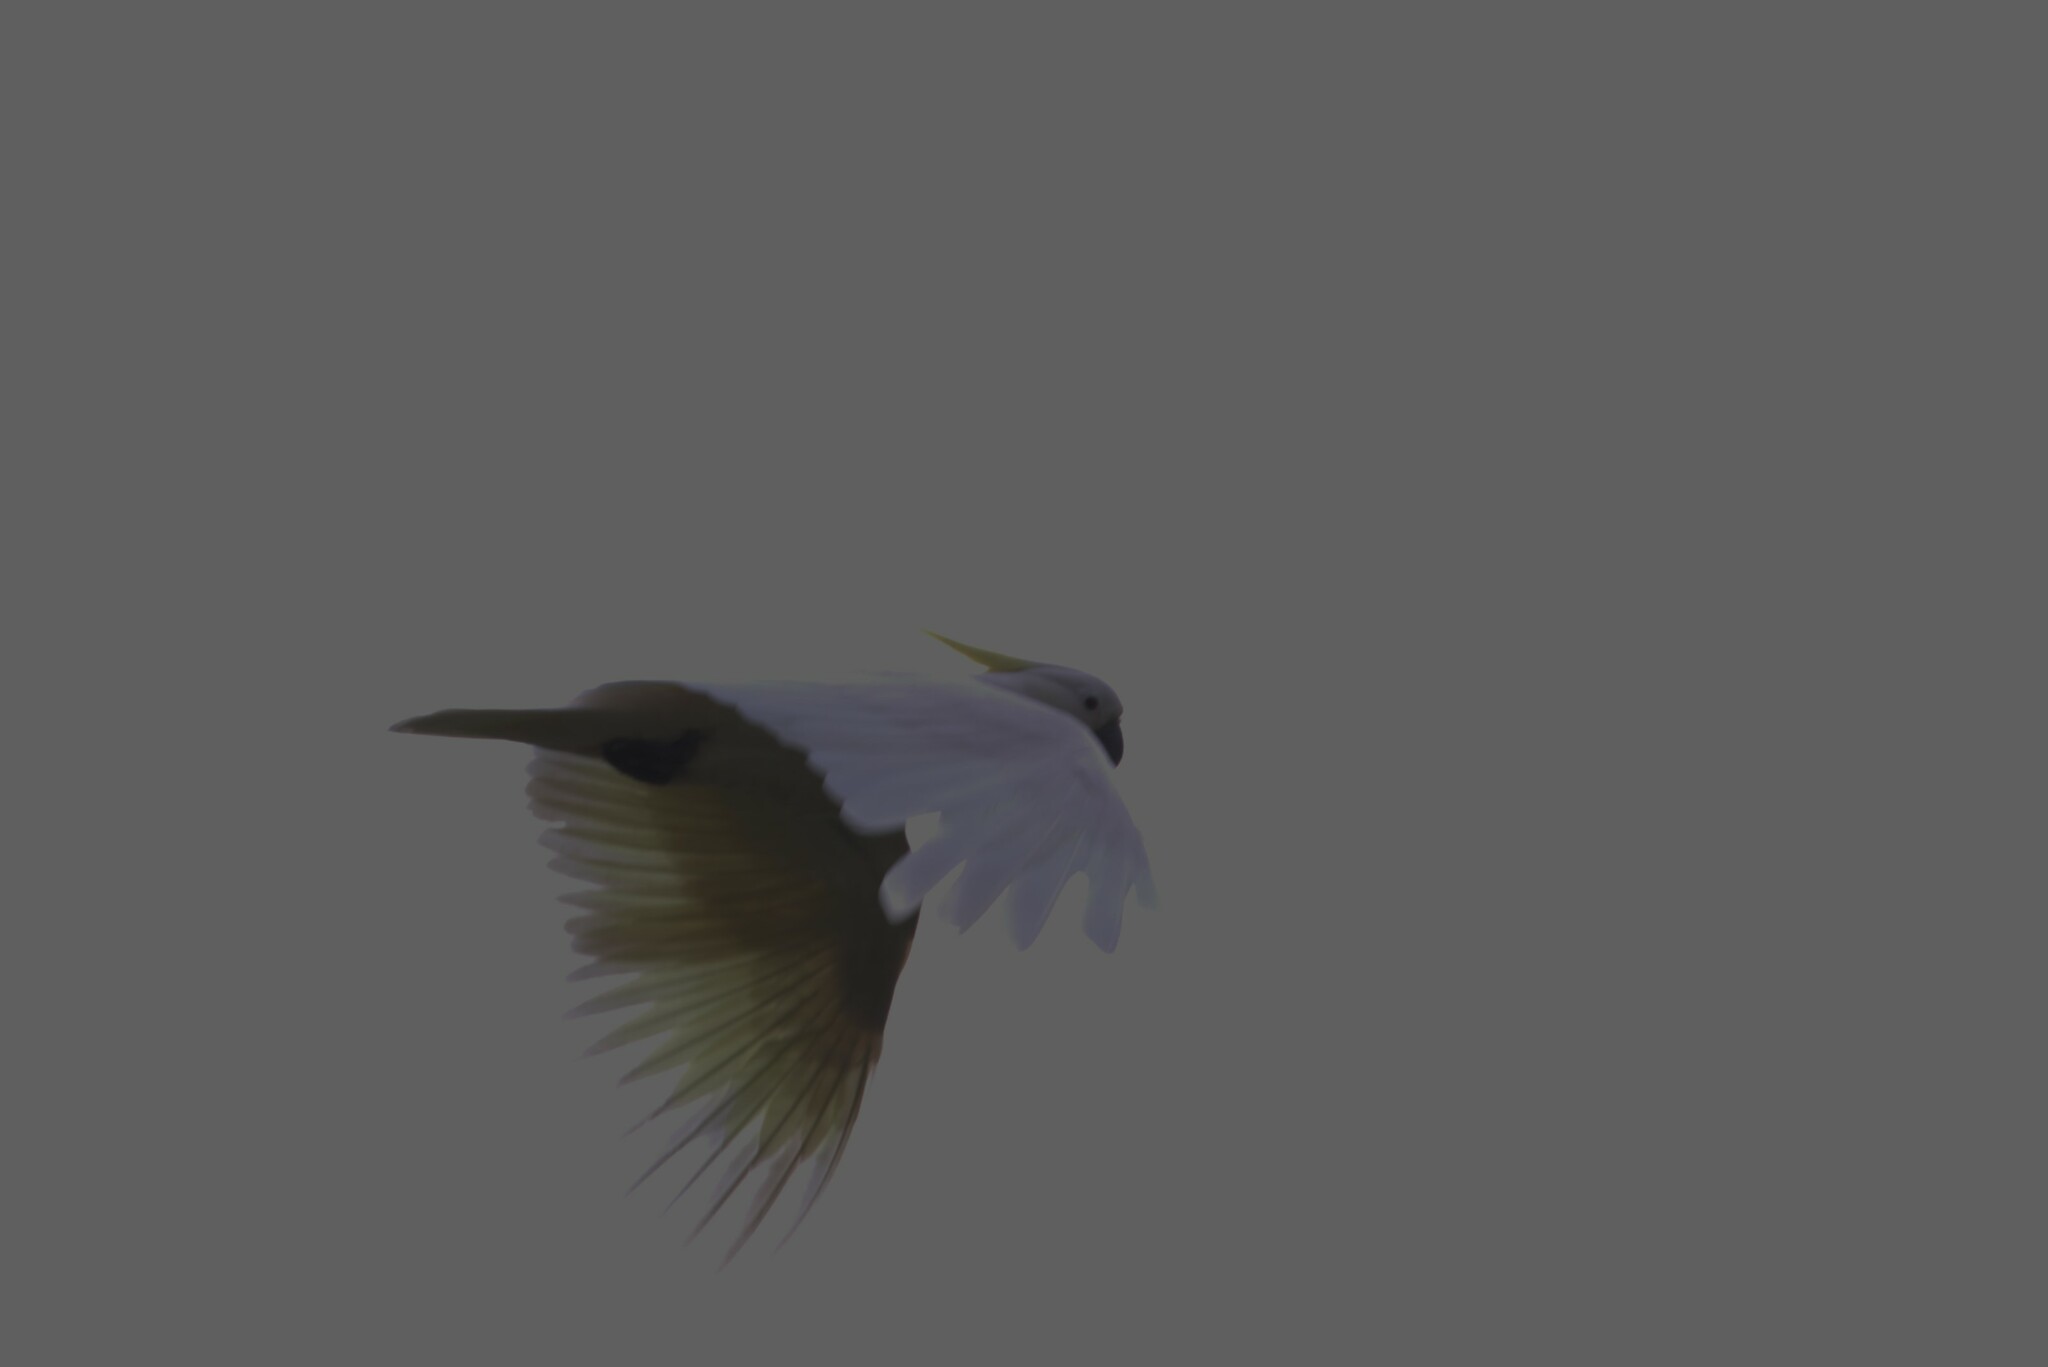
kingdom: Animalia
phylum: Chordata
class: Aves
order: Psittaciformes
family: Psittacidae
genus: Cacatua
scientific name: Cacatua galerita
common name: Sulphur-crested cockatoo
